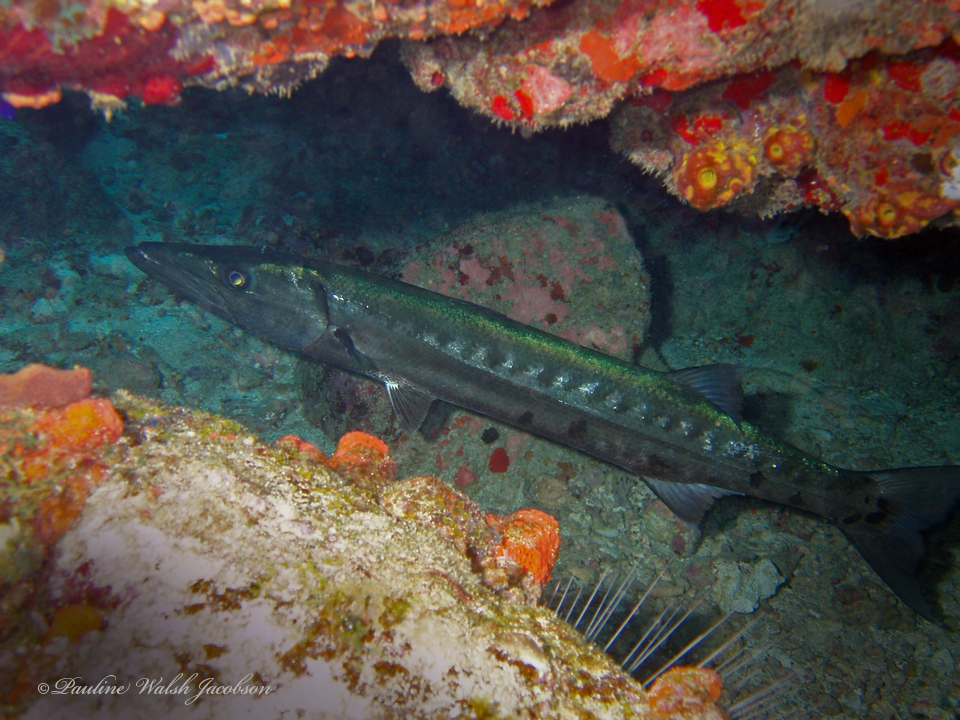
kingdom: Animalia
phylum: Chordata
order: Perciformes
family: Sphyraenidae
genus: Sphyraena
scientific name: Sphyraena barracuda
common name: Great barracuda
